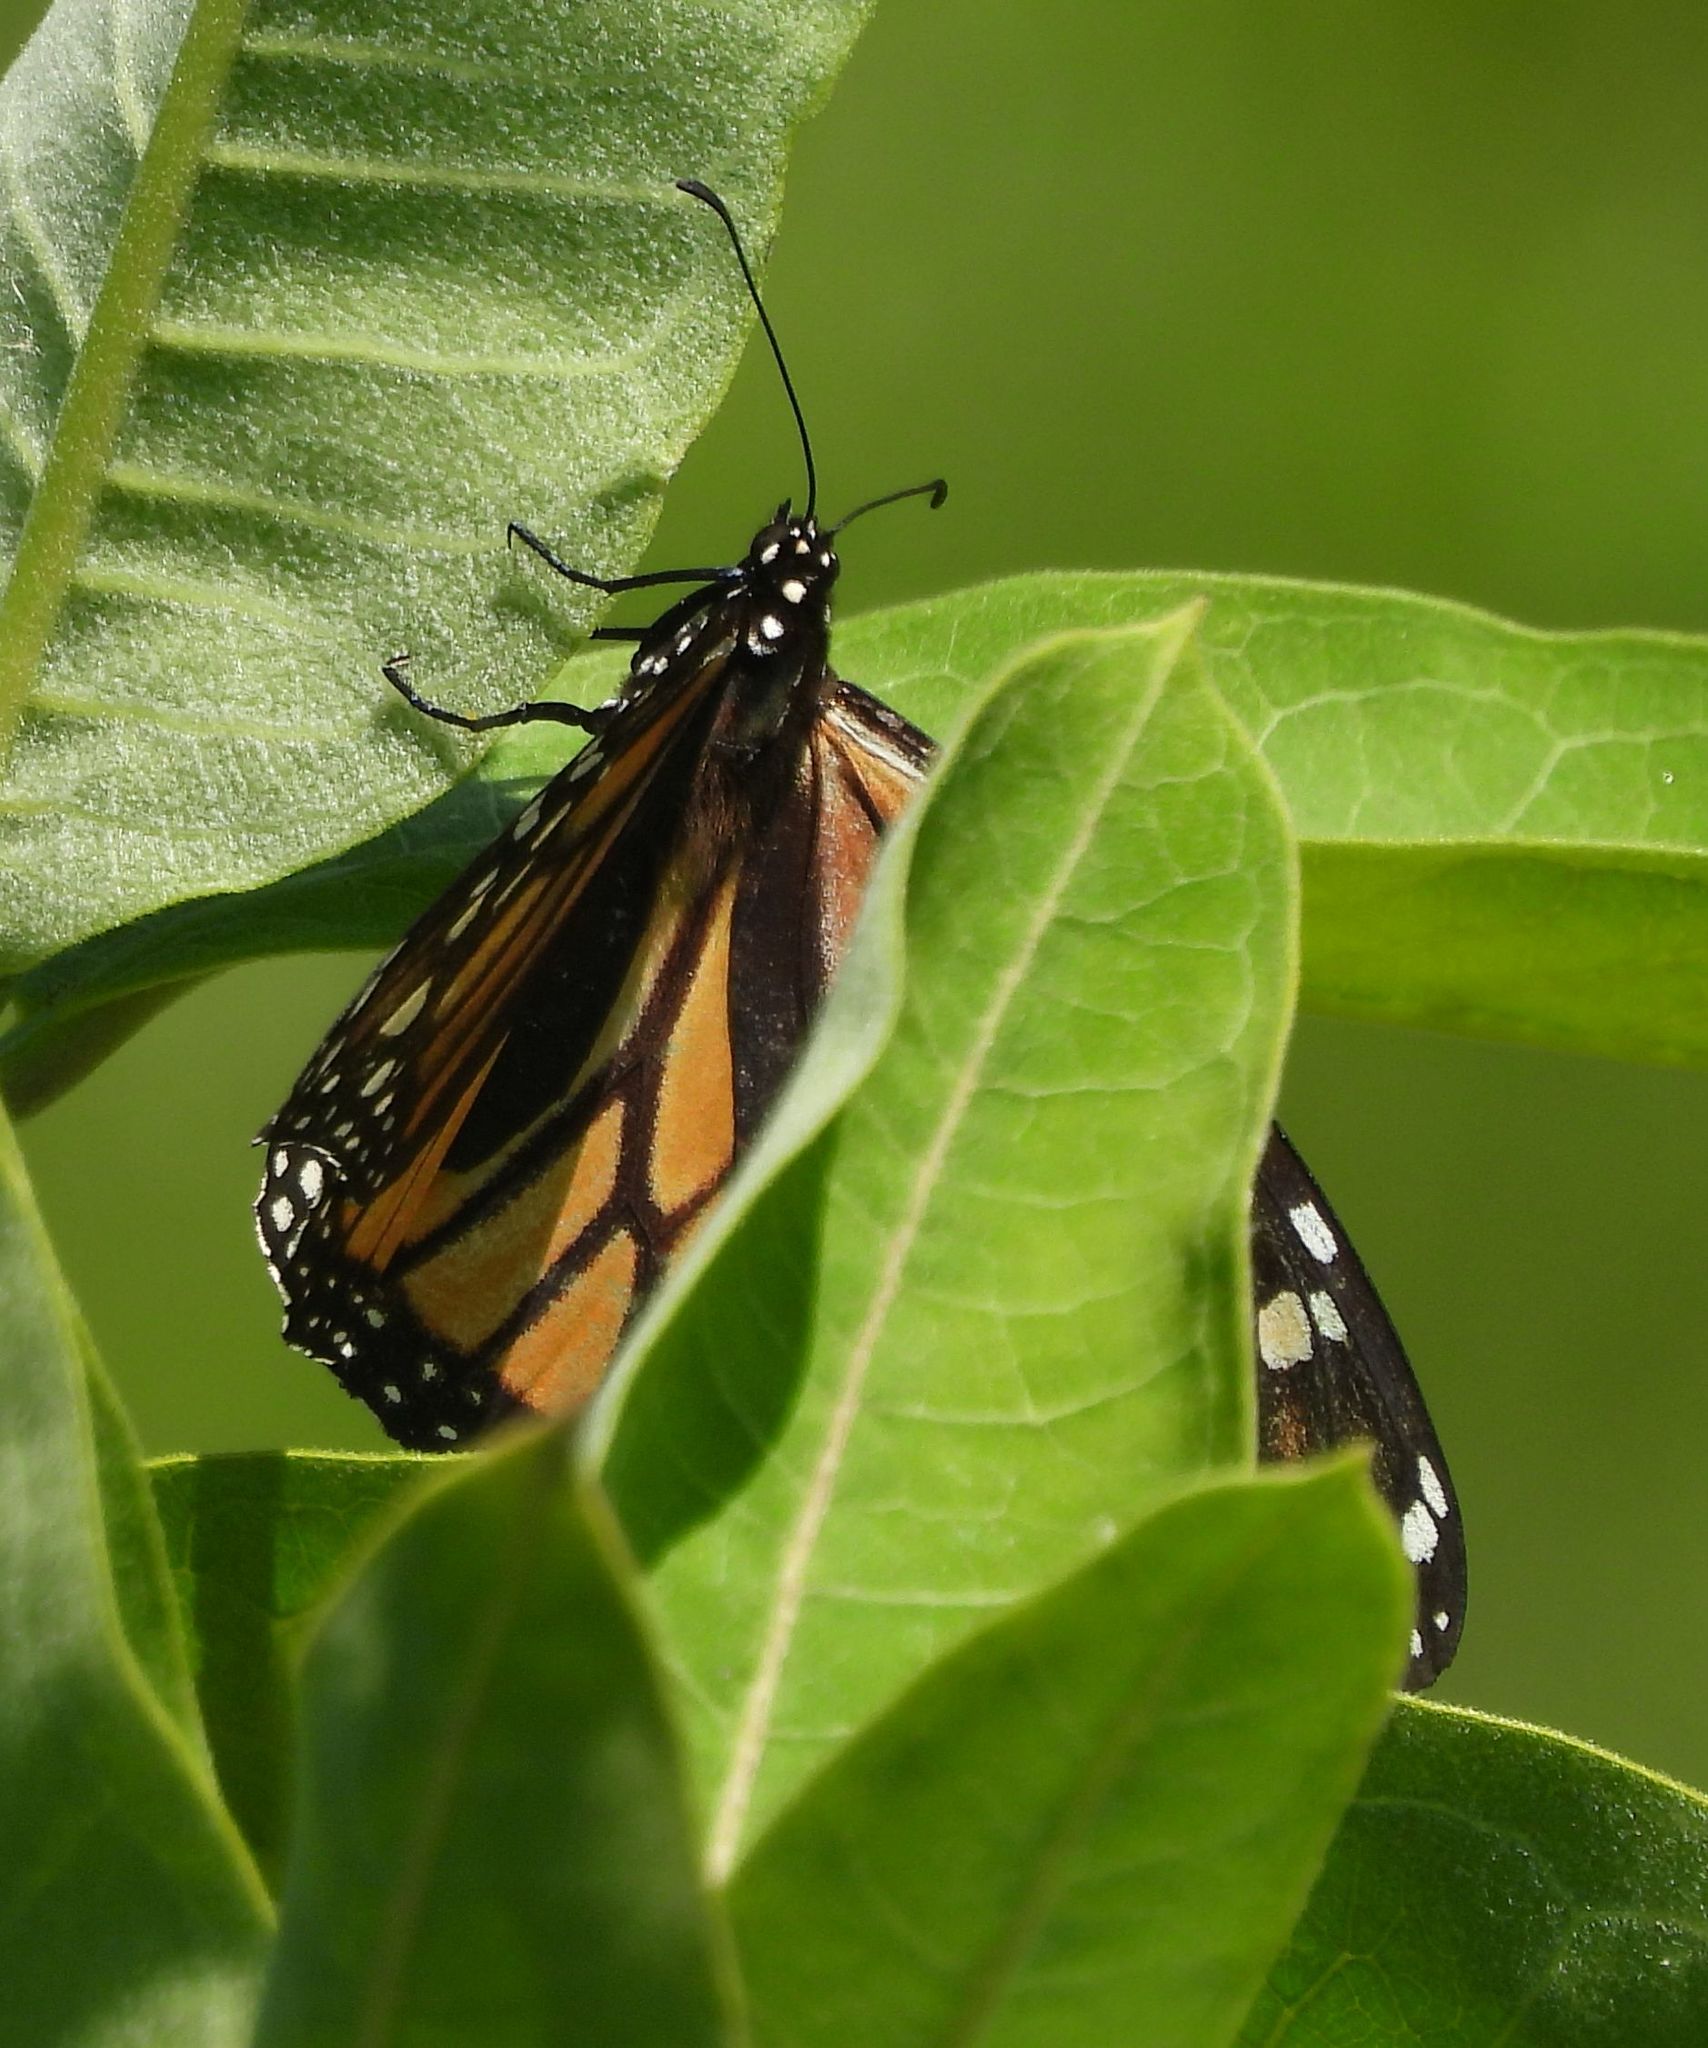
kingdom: Animalia
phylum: Arthropoda
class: Insecta
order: Lepidoptera
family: Nymphalidae
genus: Danaus
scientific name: Danaus plexippus
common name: Monarch
